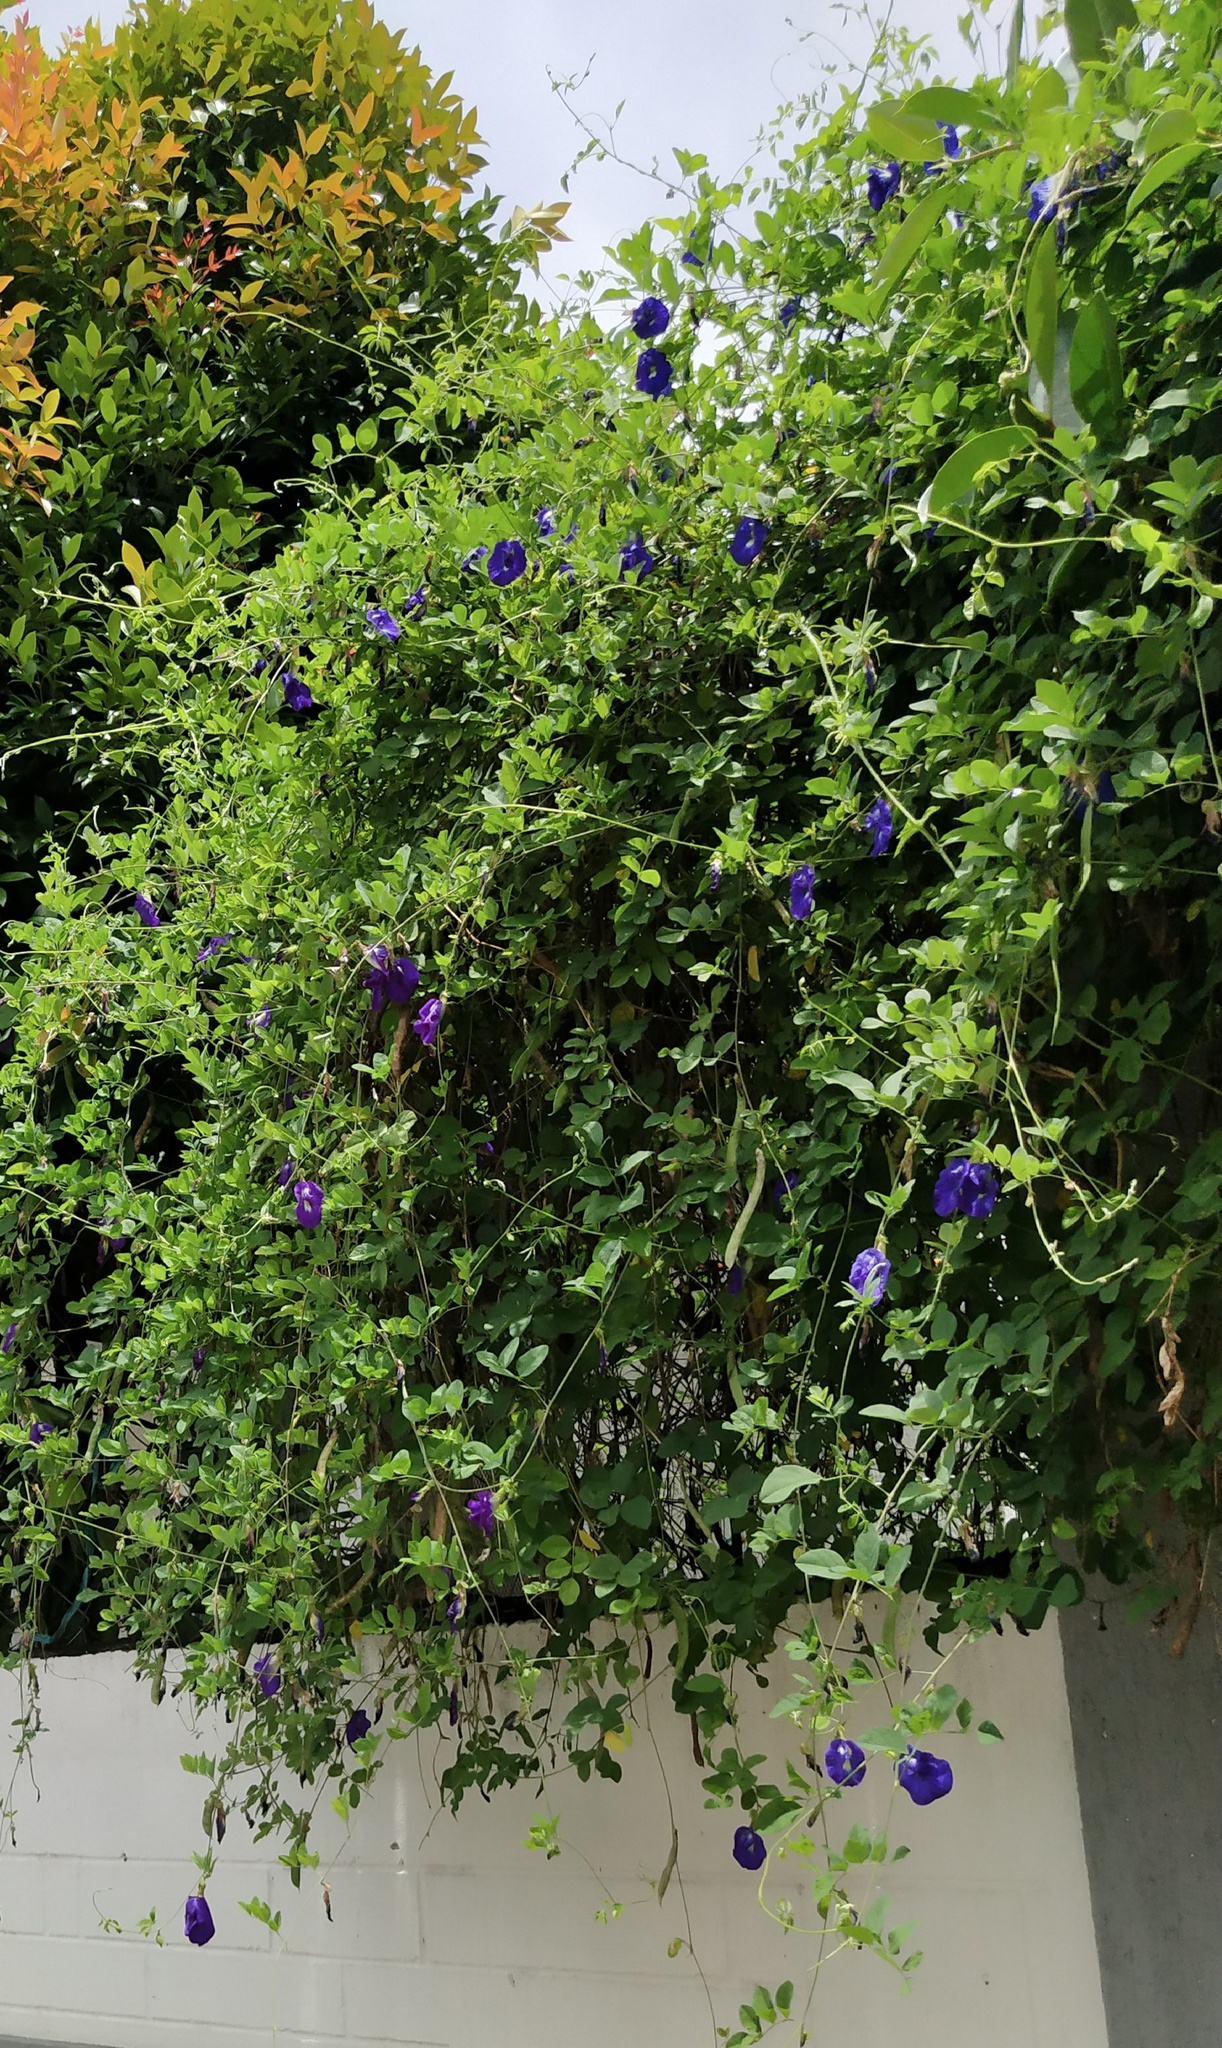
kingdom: Plantae
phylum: Tracheophyta
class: Magnoliopsida
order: Fabales
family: Fabaceae
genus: Clitoria
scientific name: Clitoria ternatea
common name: Asian pigeonwings
